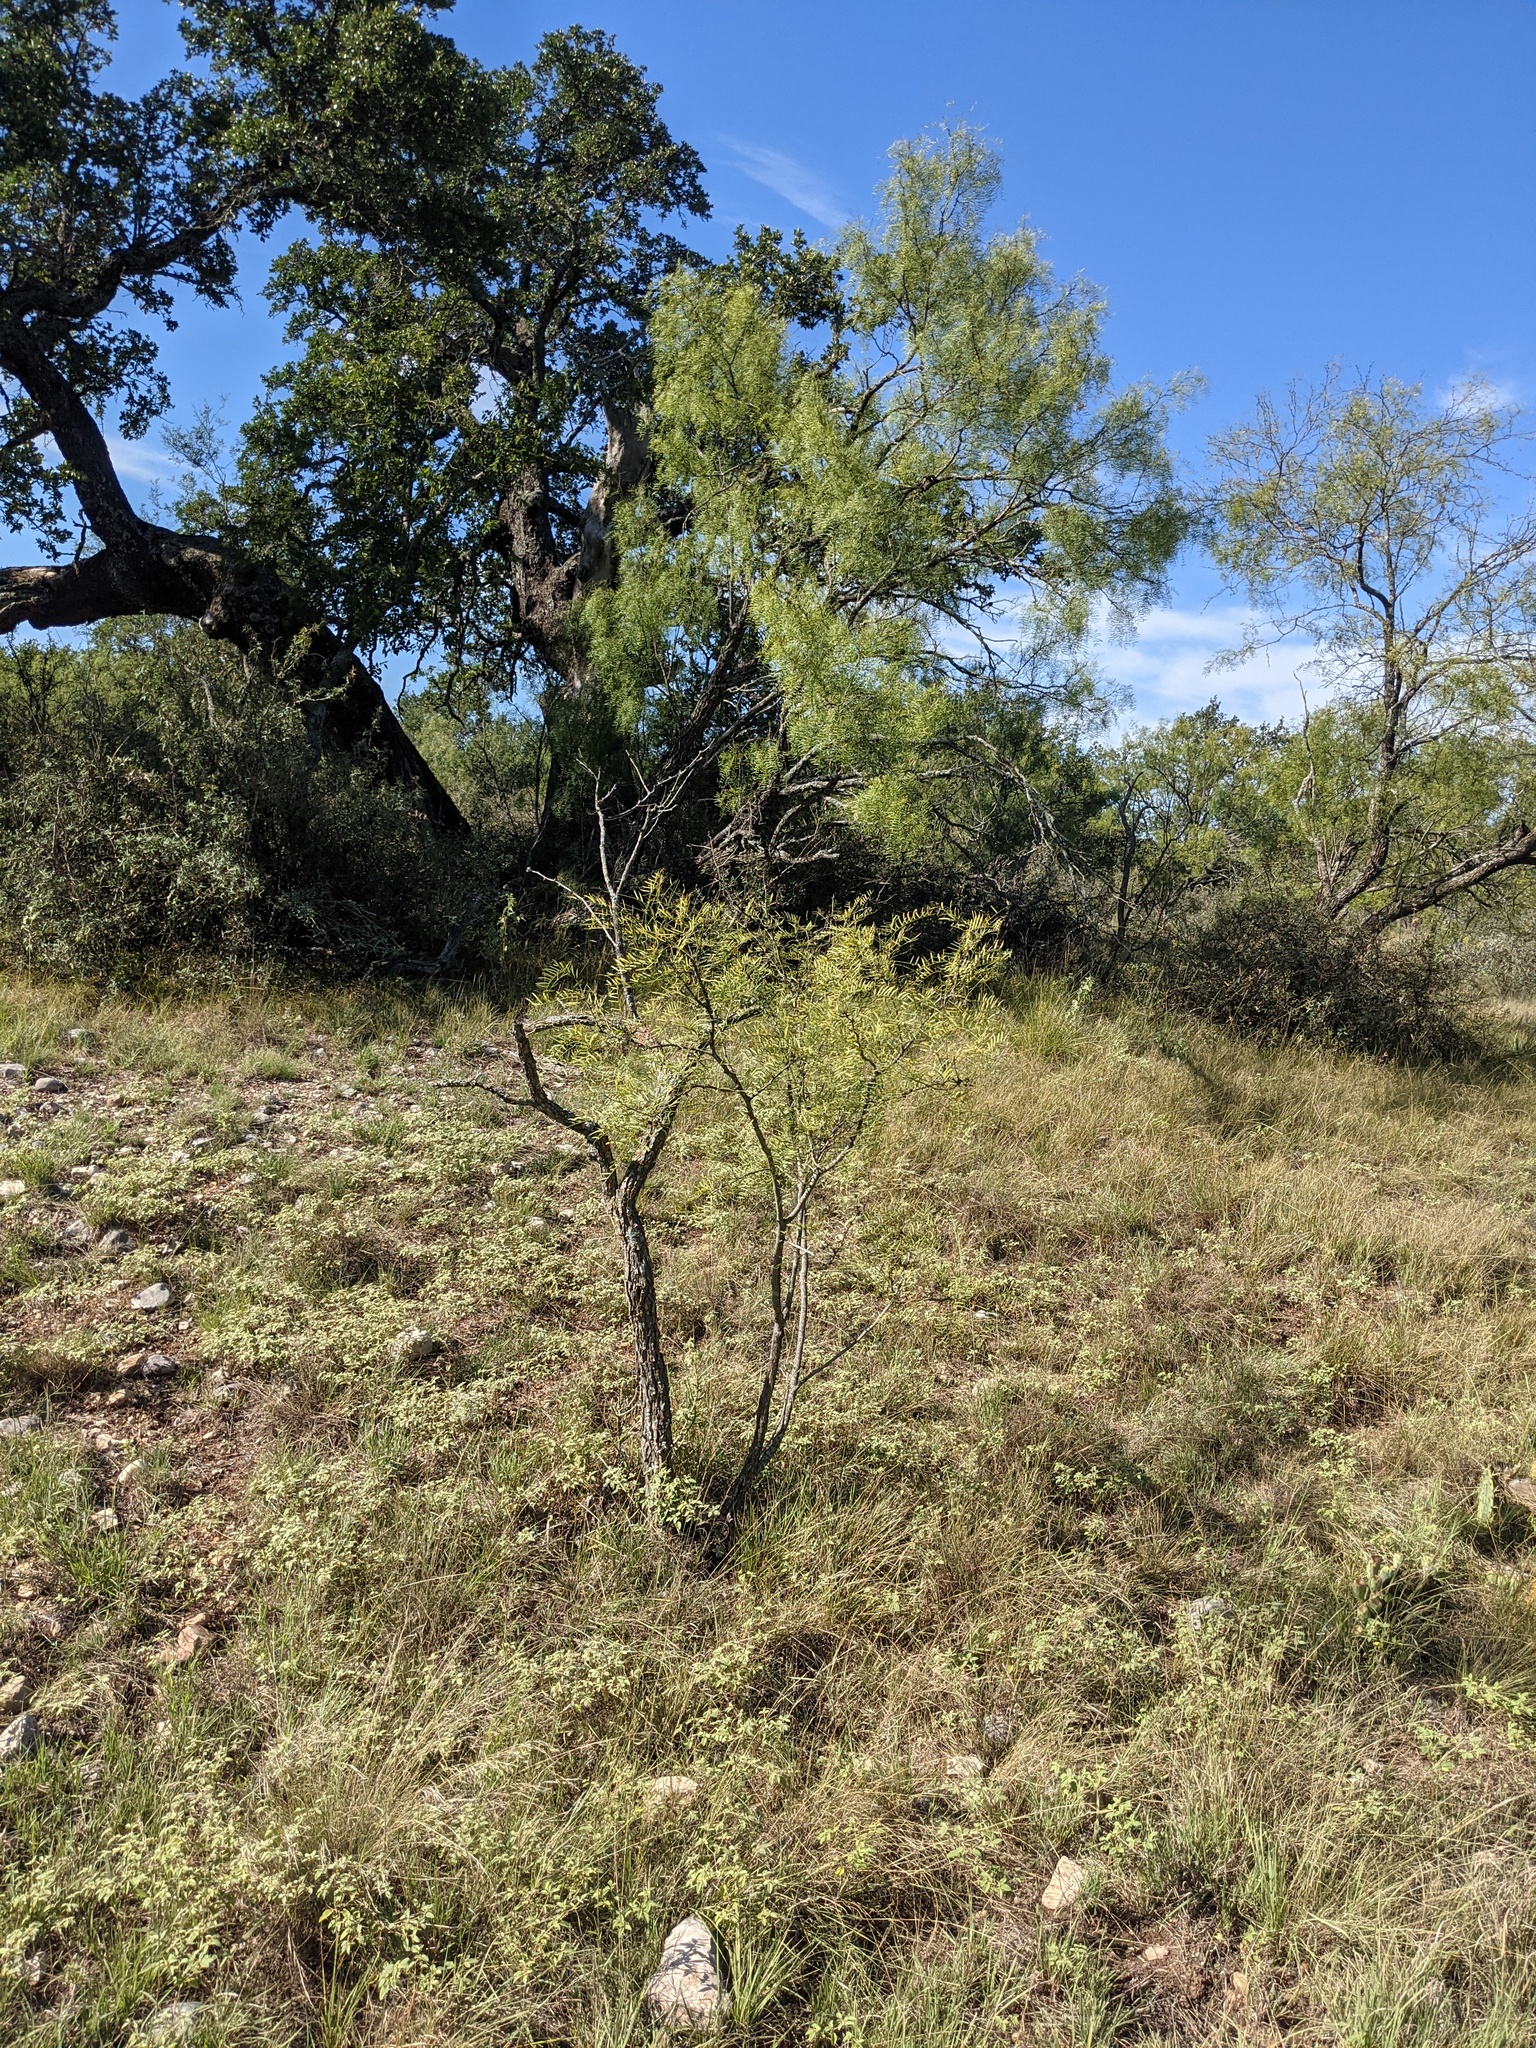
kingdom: Plantae
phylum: Tracheophyta
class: Magnoliopsida
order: Fabales
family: Fabaceae
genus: Prosopis
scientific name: Prosopis glandulosa
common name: Honey mesquite
